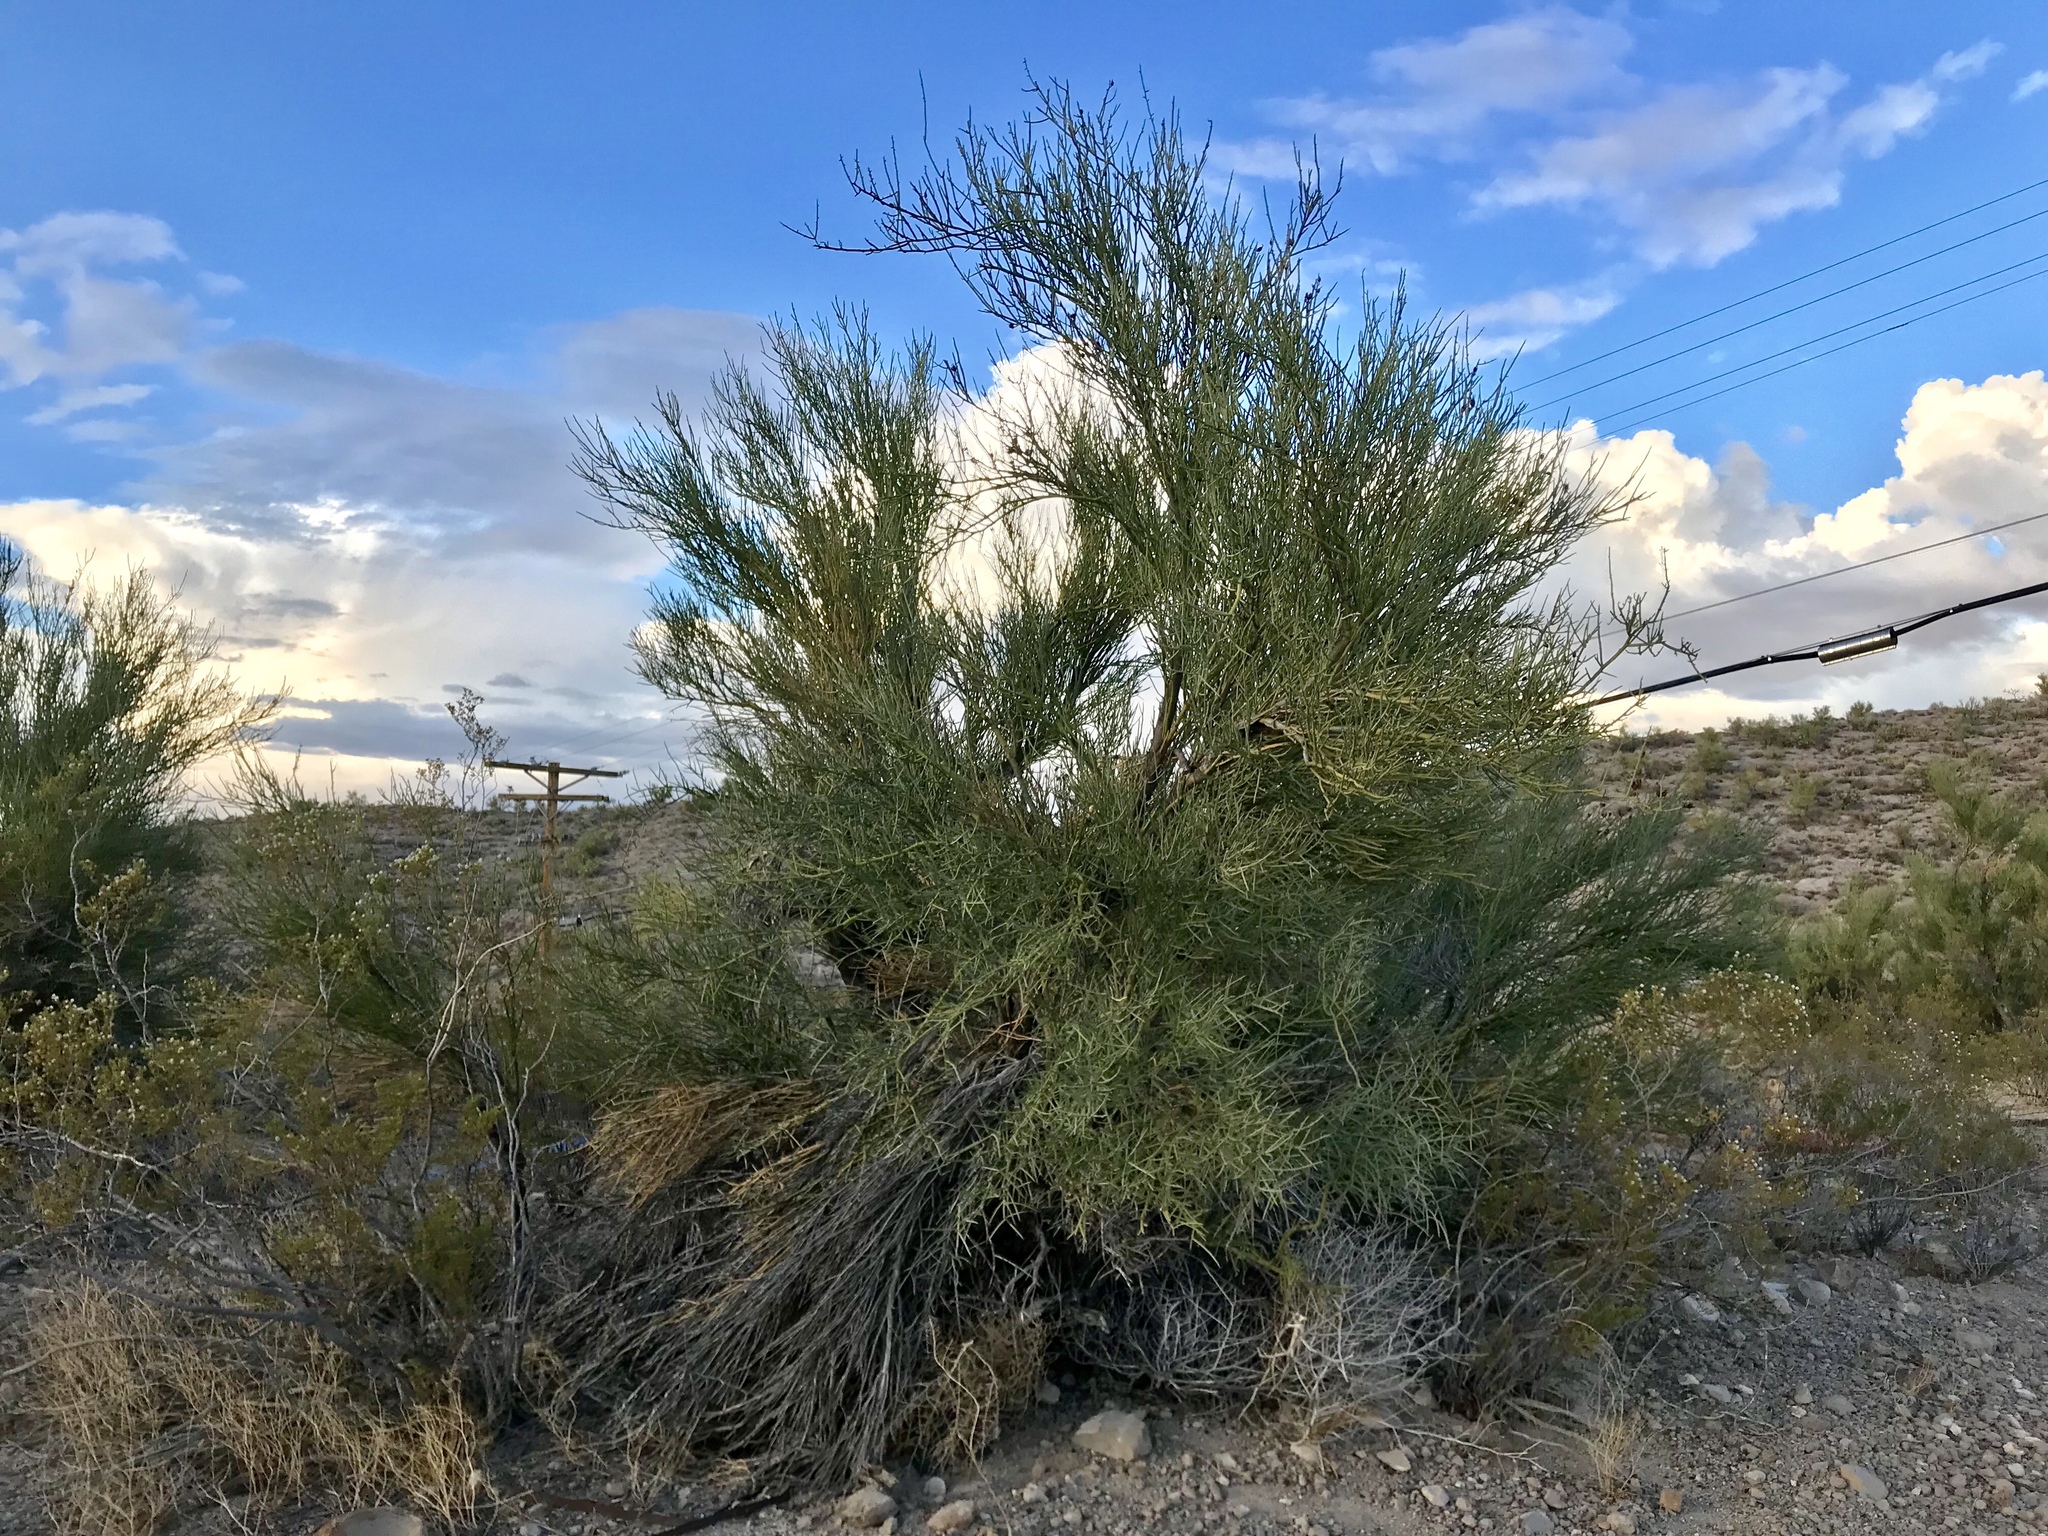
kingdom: Plantae
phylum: Tracheophyta
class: Magnoliopsida
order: Celastrales
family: Celastraceae
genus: Canotia
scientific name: Canotia holacantha
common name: Crucifixion thorns
